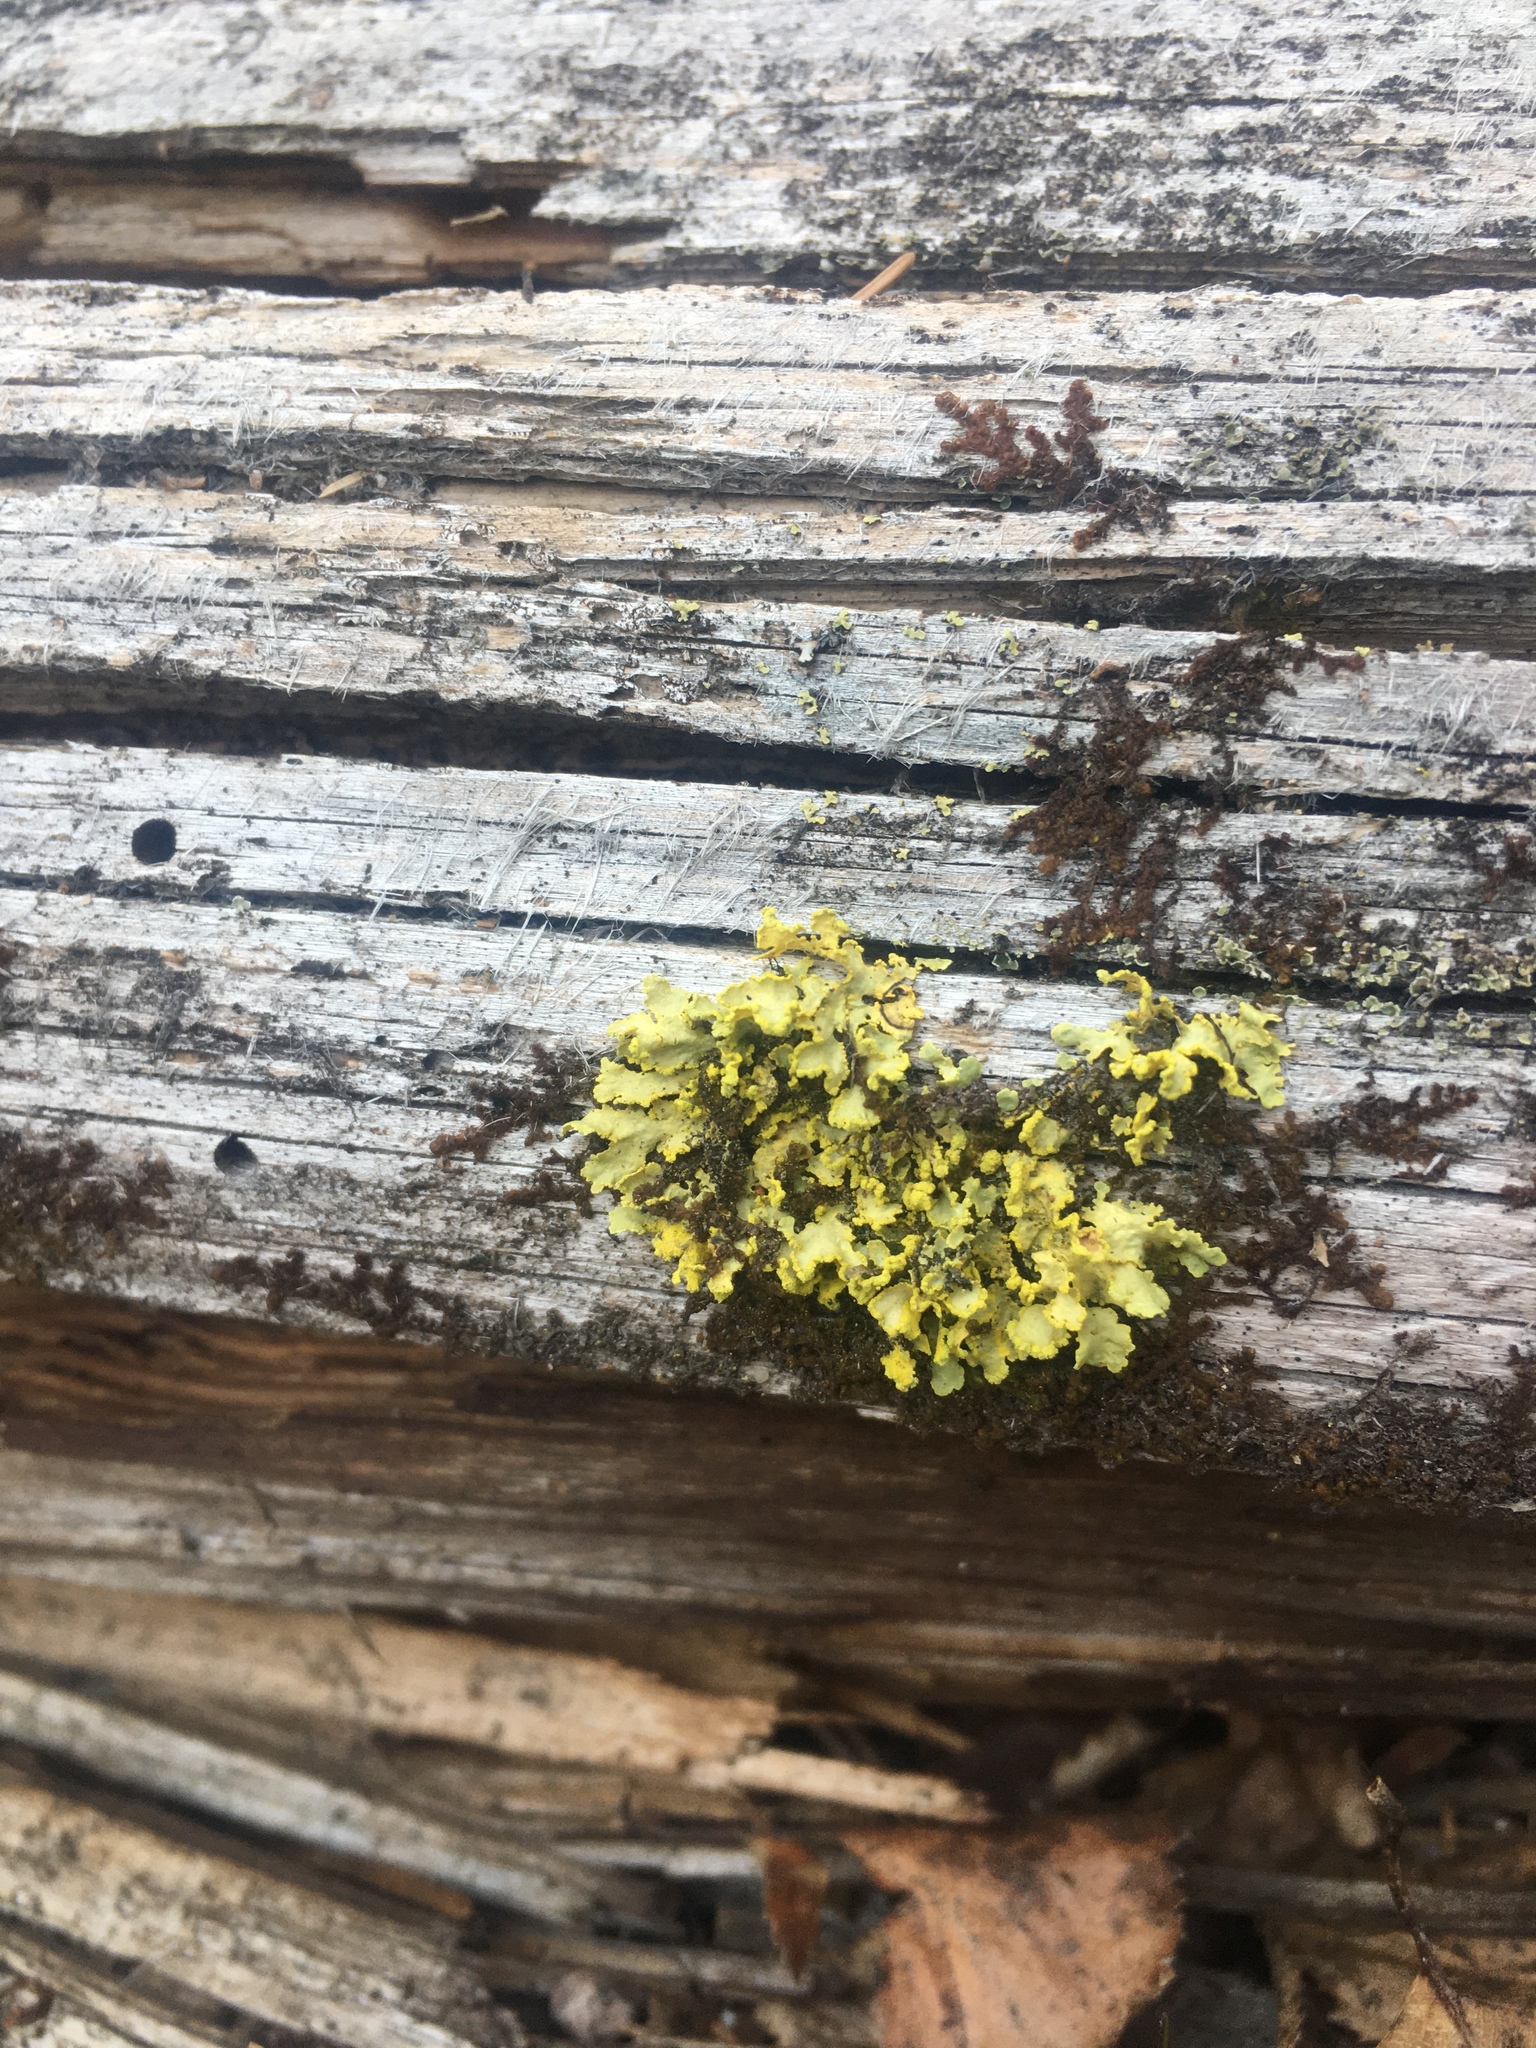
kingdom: Fungi
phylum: Ascomycota
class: Lecanoromycetes
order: Lecanorales
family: Parmeliaceae
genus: Vulpicida
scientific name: Vulpicida pinastri
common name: Powdered sunshine lichen
